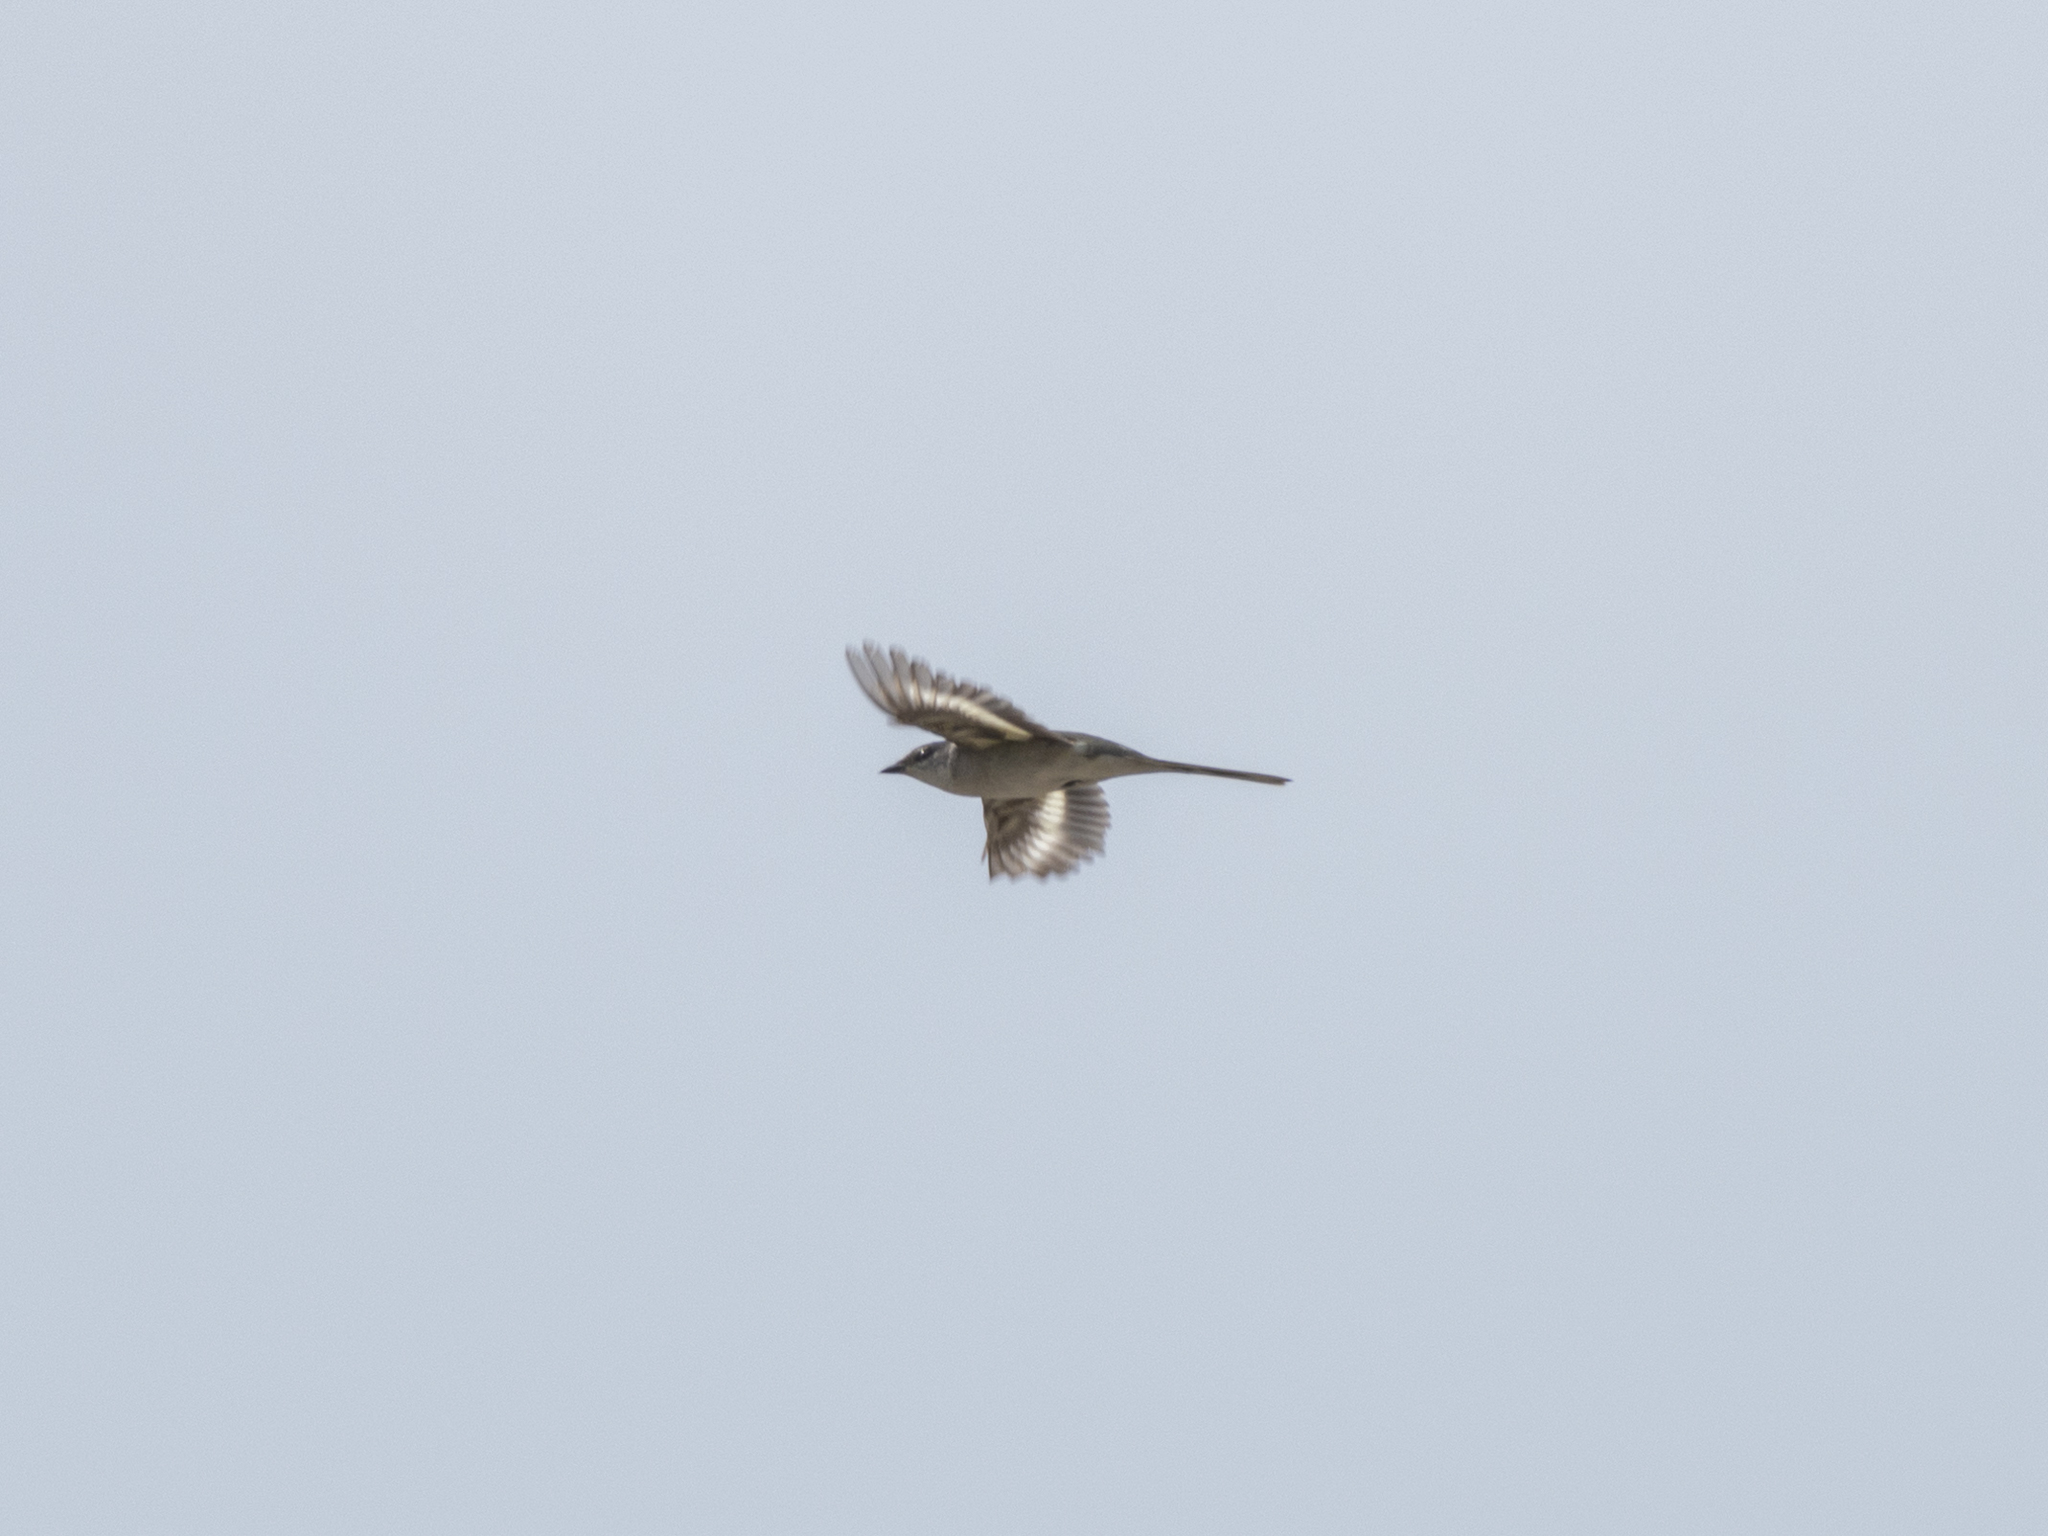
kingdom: Animalia
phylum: Chordata
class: Aves
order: Passeriformes
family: Campephagidae
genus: Pericrocotus
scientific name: Pericrocotus divaricatus
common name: Ashy minivet
